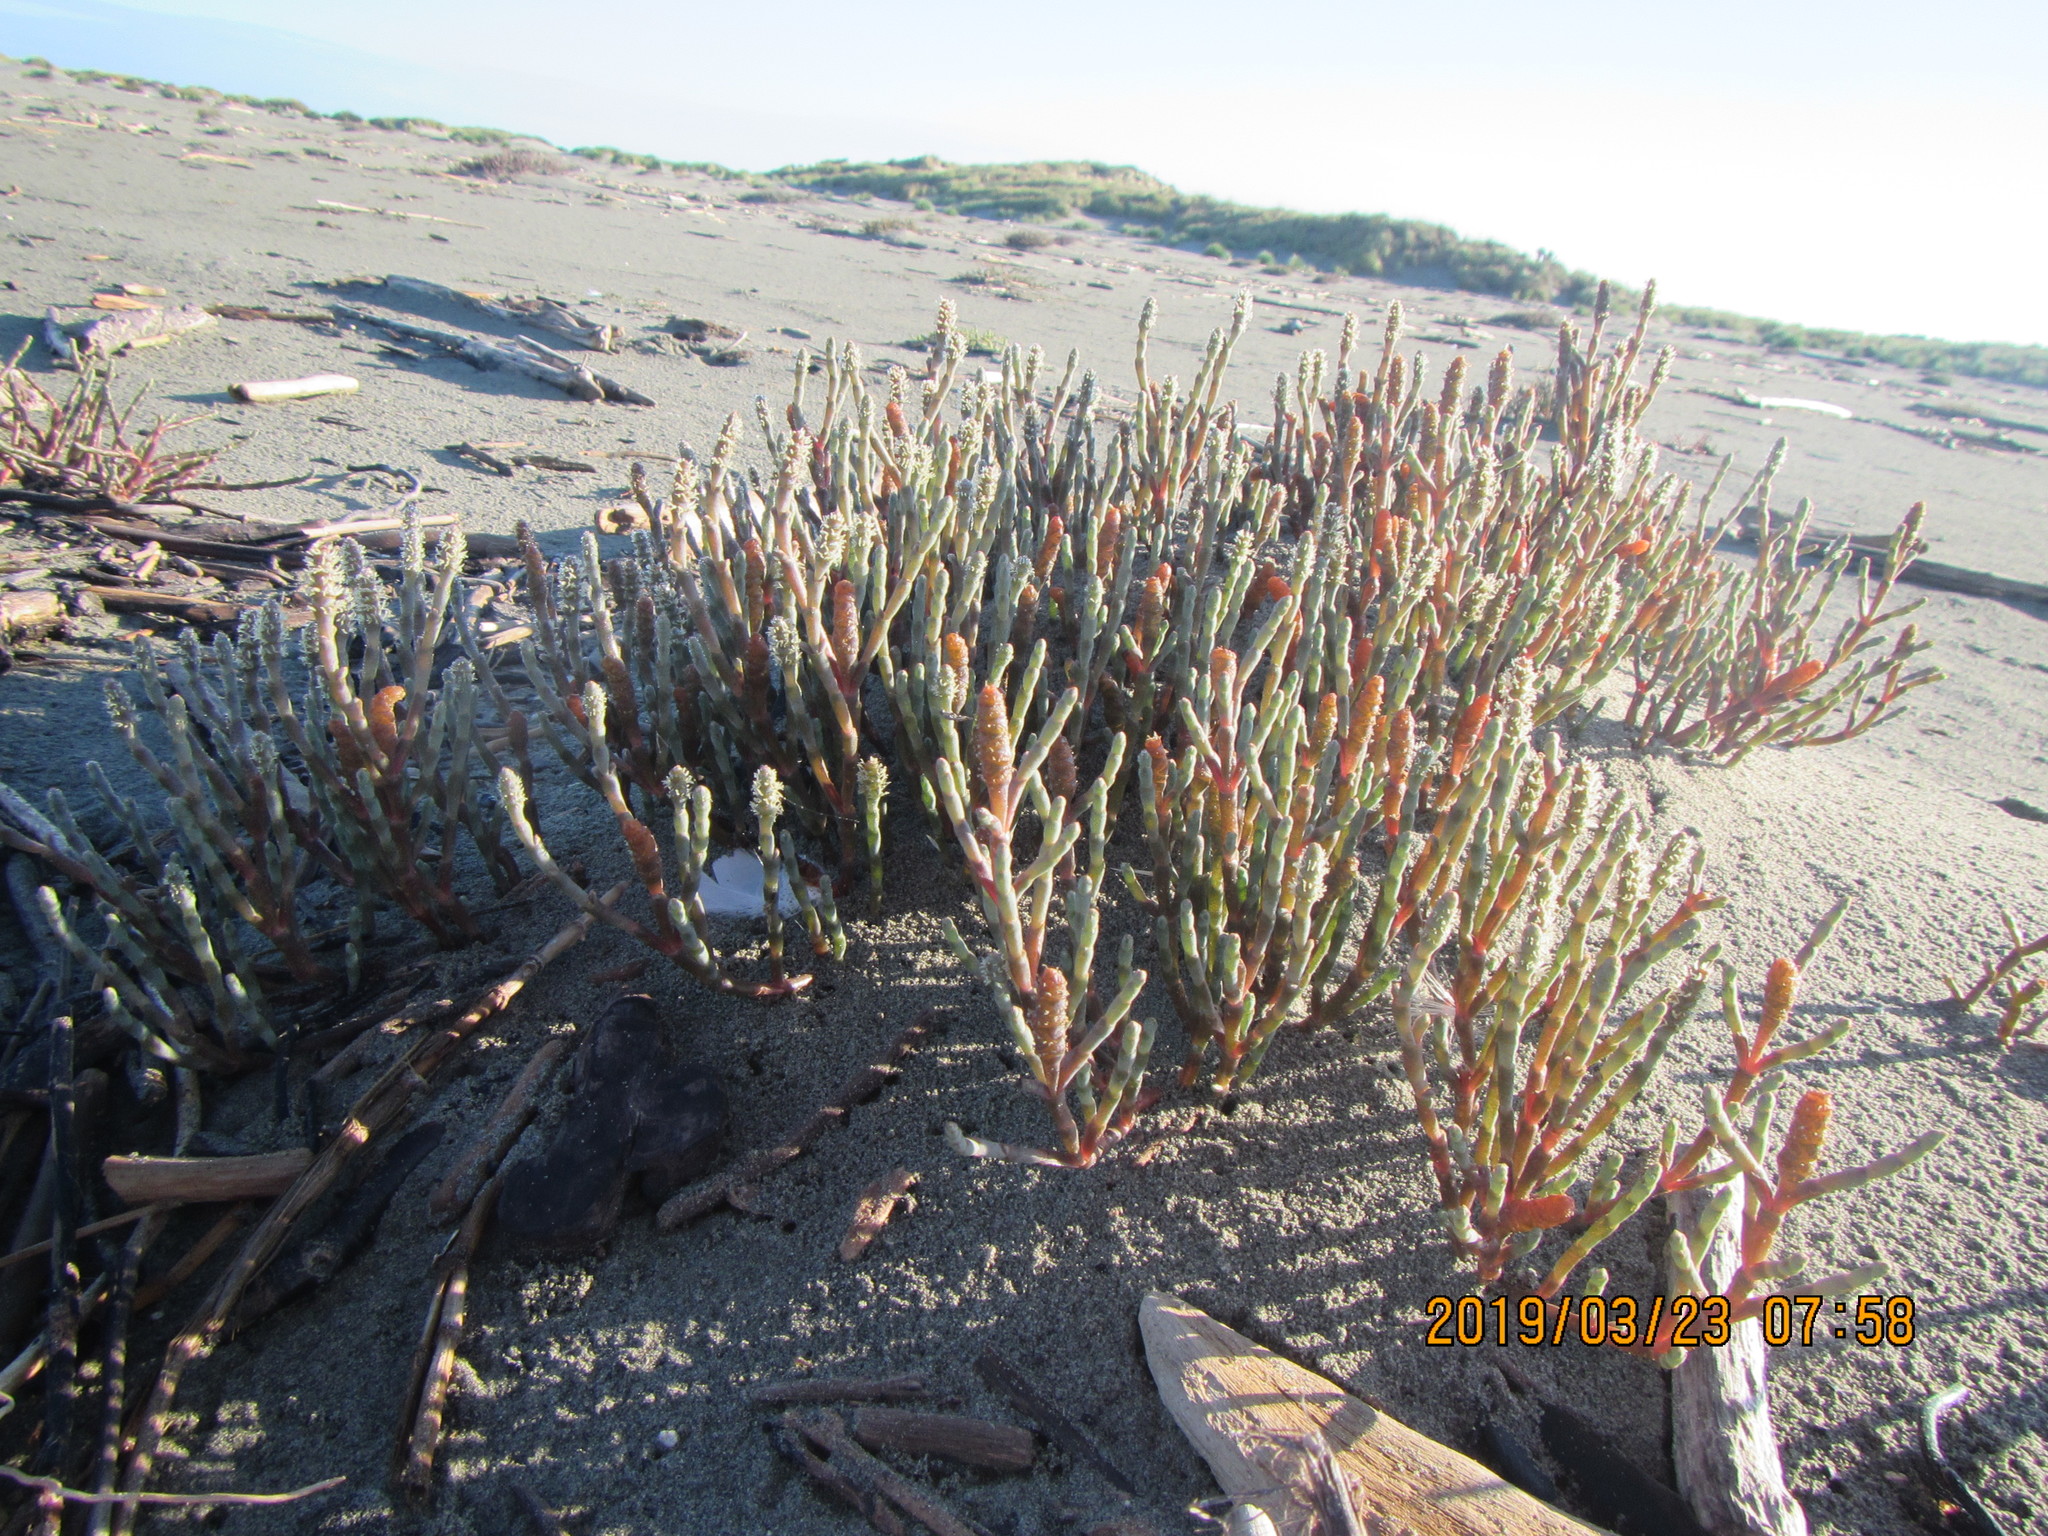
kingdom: Plantae
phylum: Tracheophyta
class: Magnoliopsida
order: Caryophyllales
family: Amaranthaceae
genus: Salicornia
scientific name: Salicornia quinqueflora
